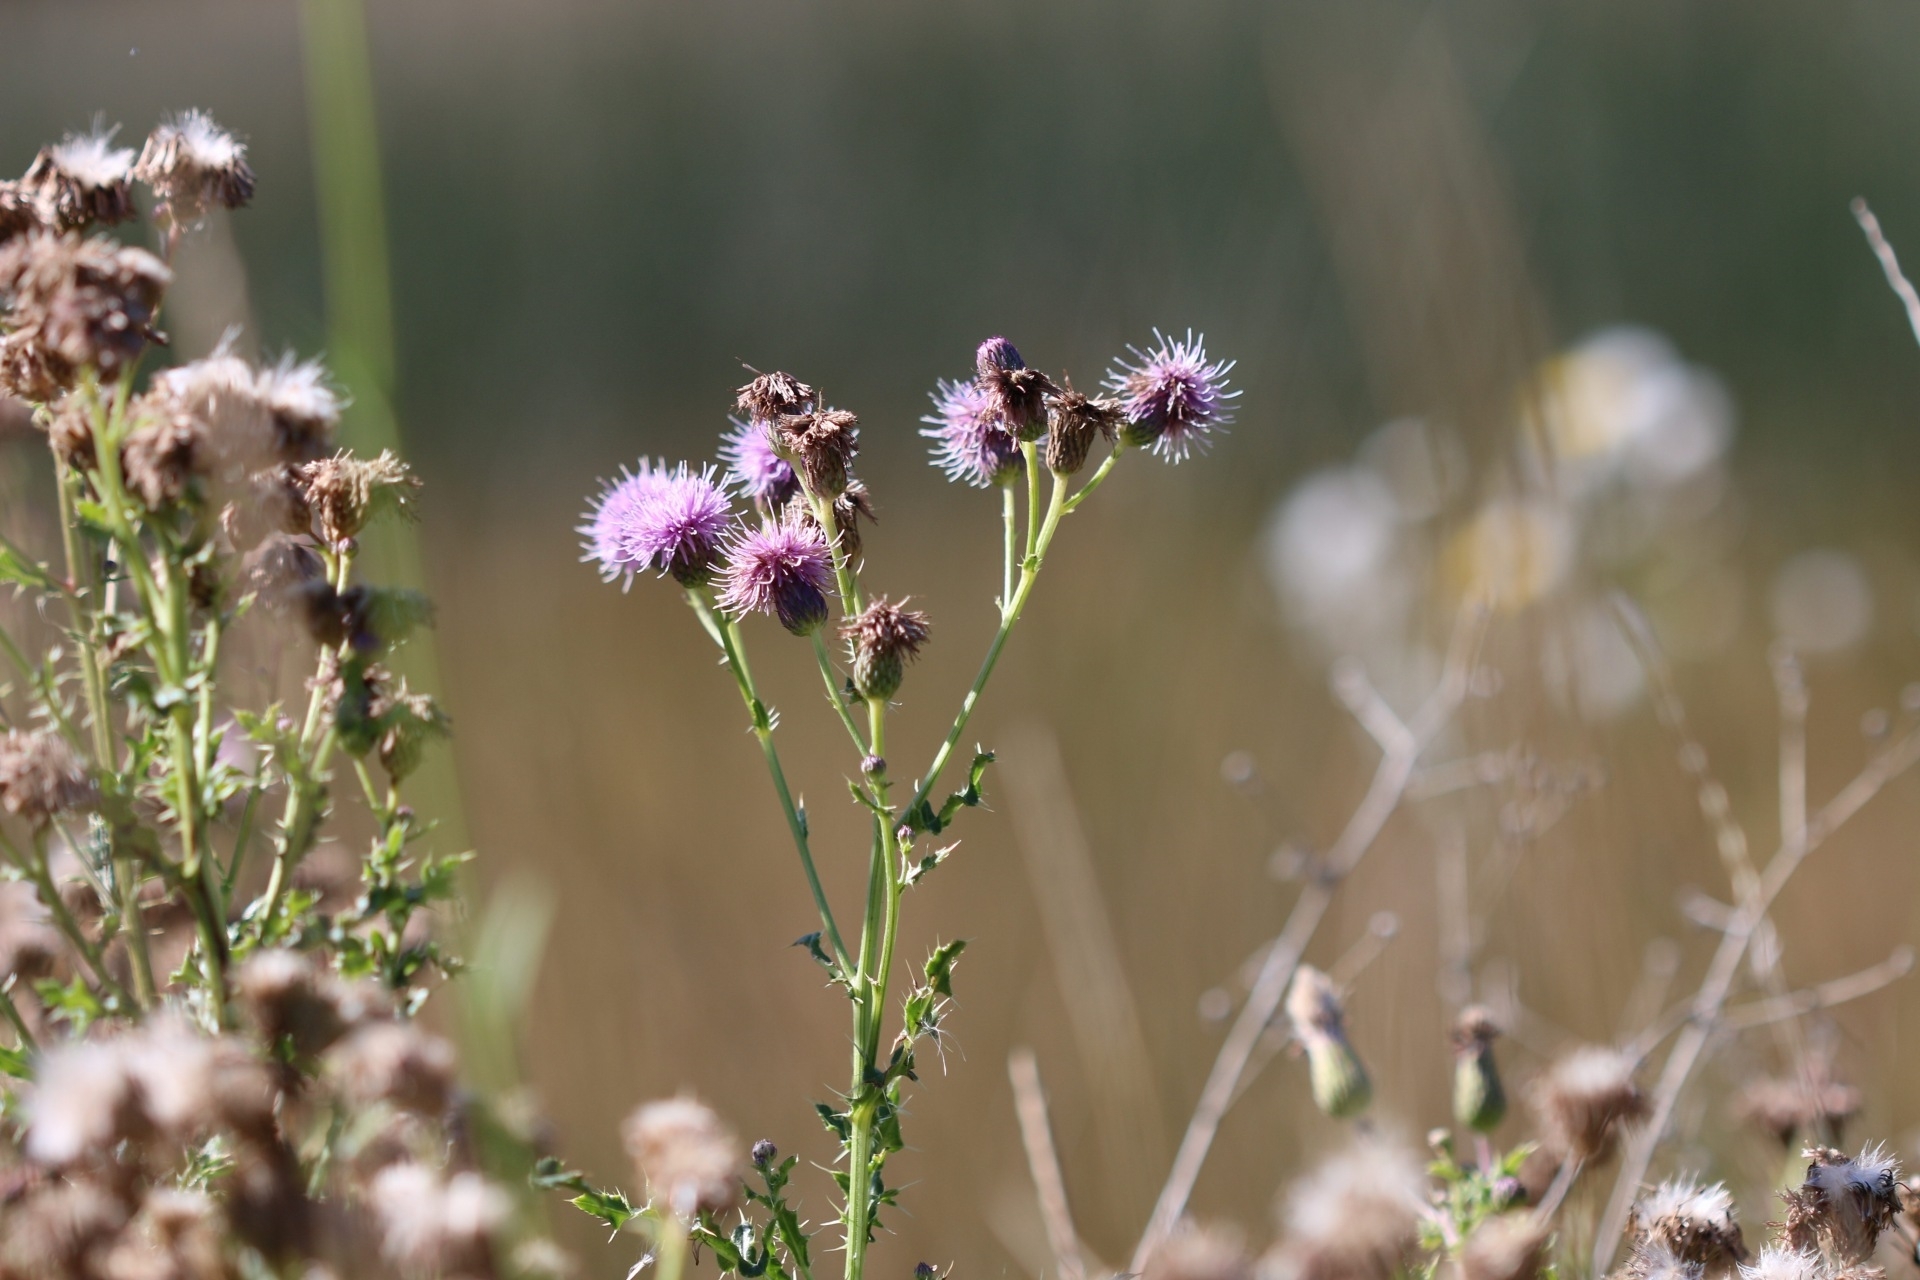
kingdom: Plantae
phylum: Tracheophyta
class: Magnoliopsida
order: Asterales
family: Asteraceae
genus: Cirsium
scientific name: Cirsium arvense
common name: Creeping thistle
